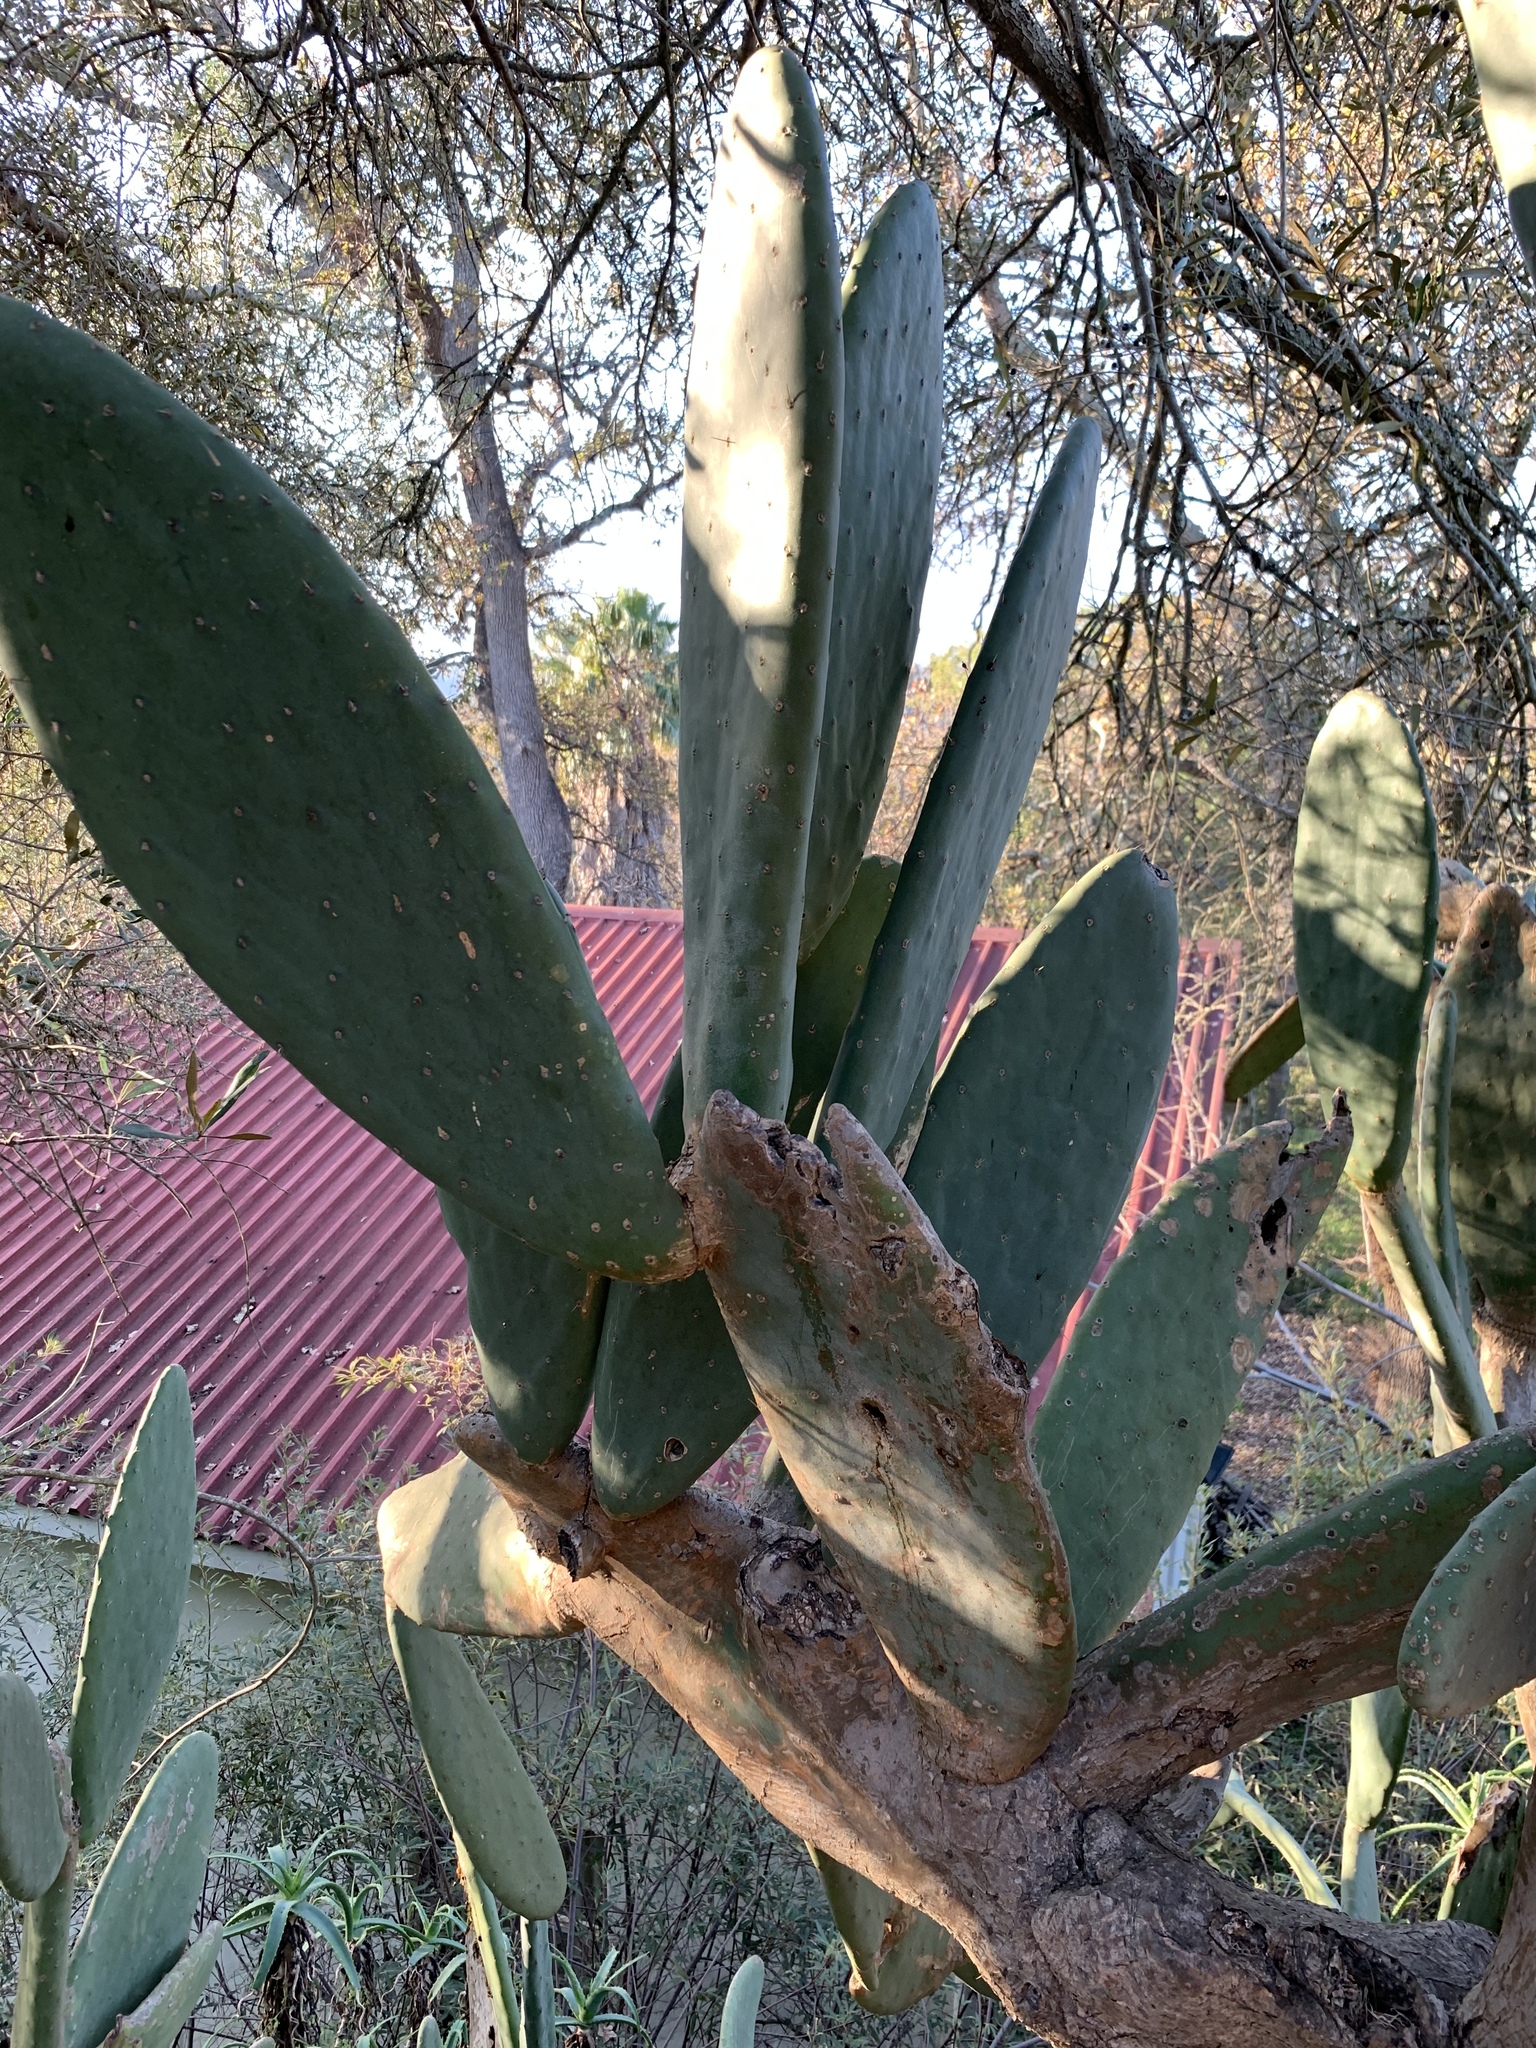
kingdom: Plantae
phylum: Tracheophyta
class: Magnoliopsida
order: Caryophyllales
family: Cactaceae
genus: Opuntia
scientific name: Opuntia ficus-indica
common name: Barbary fig
